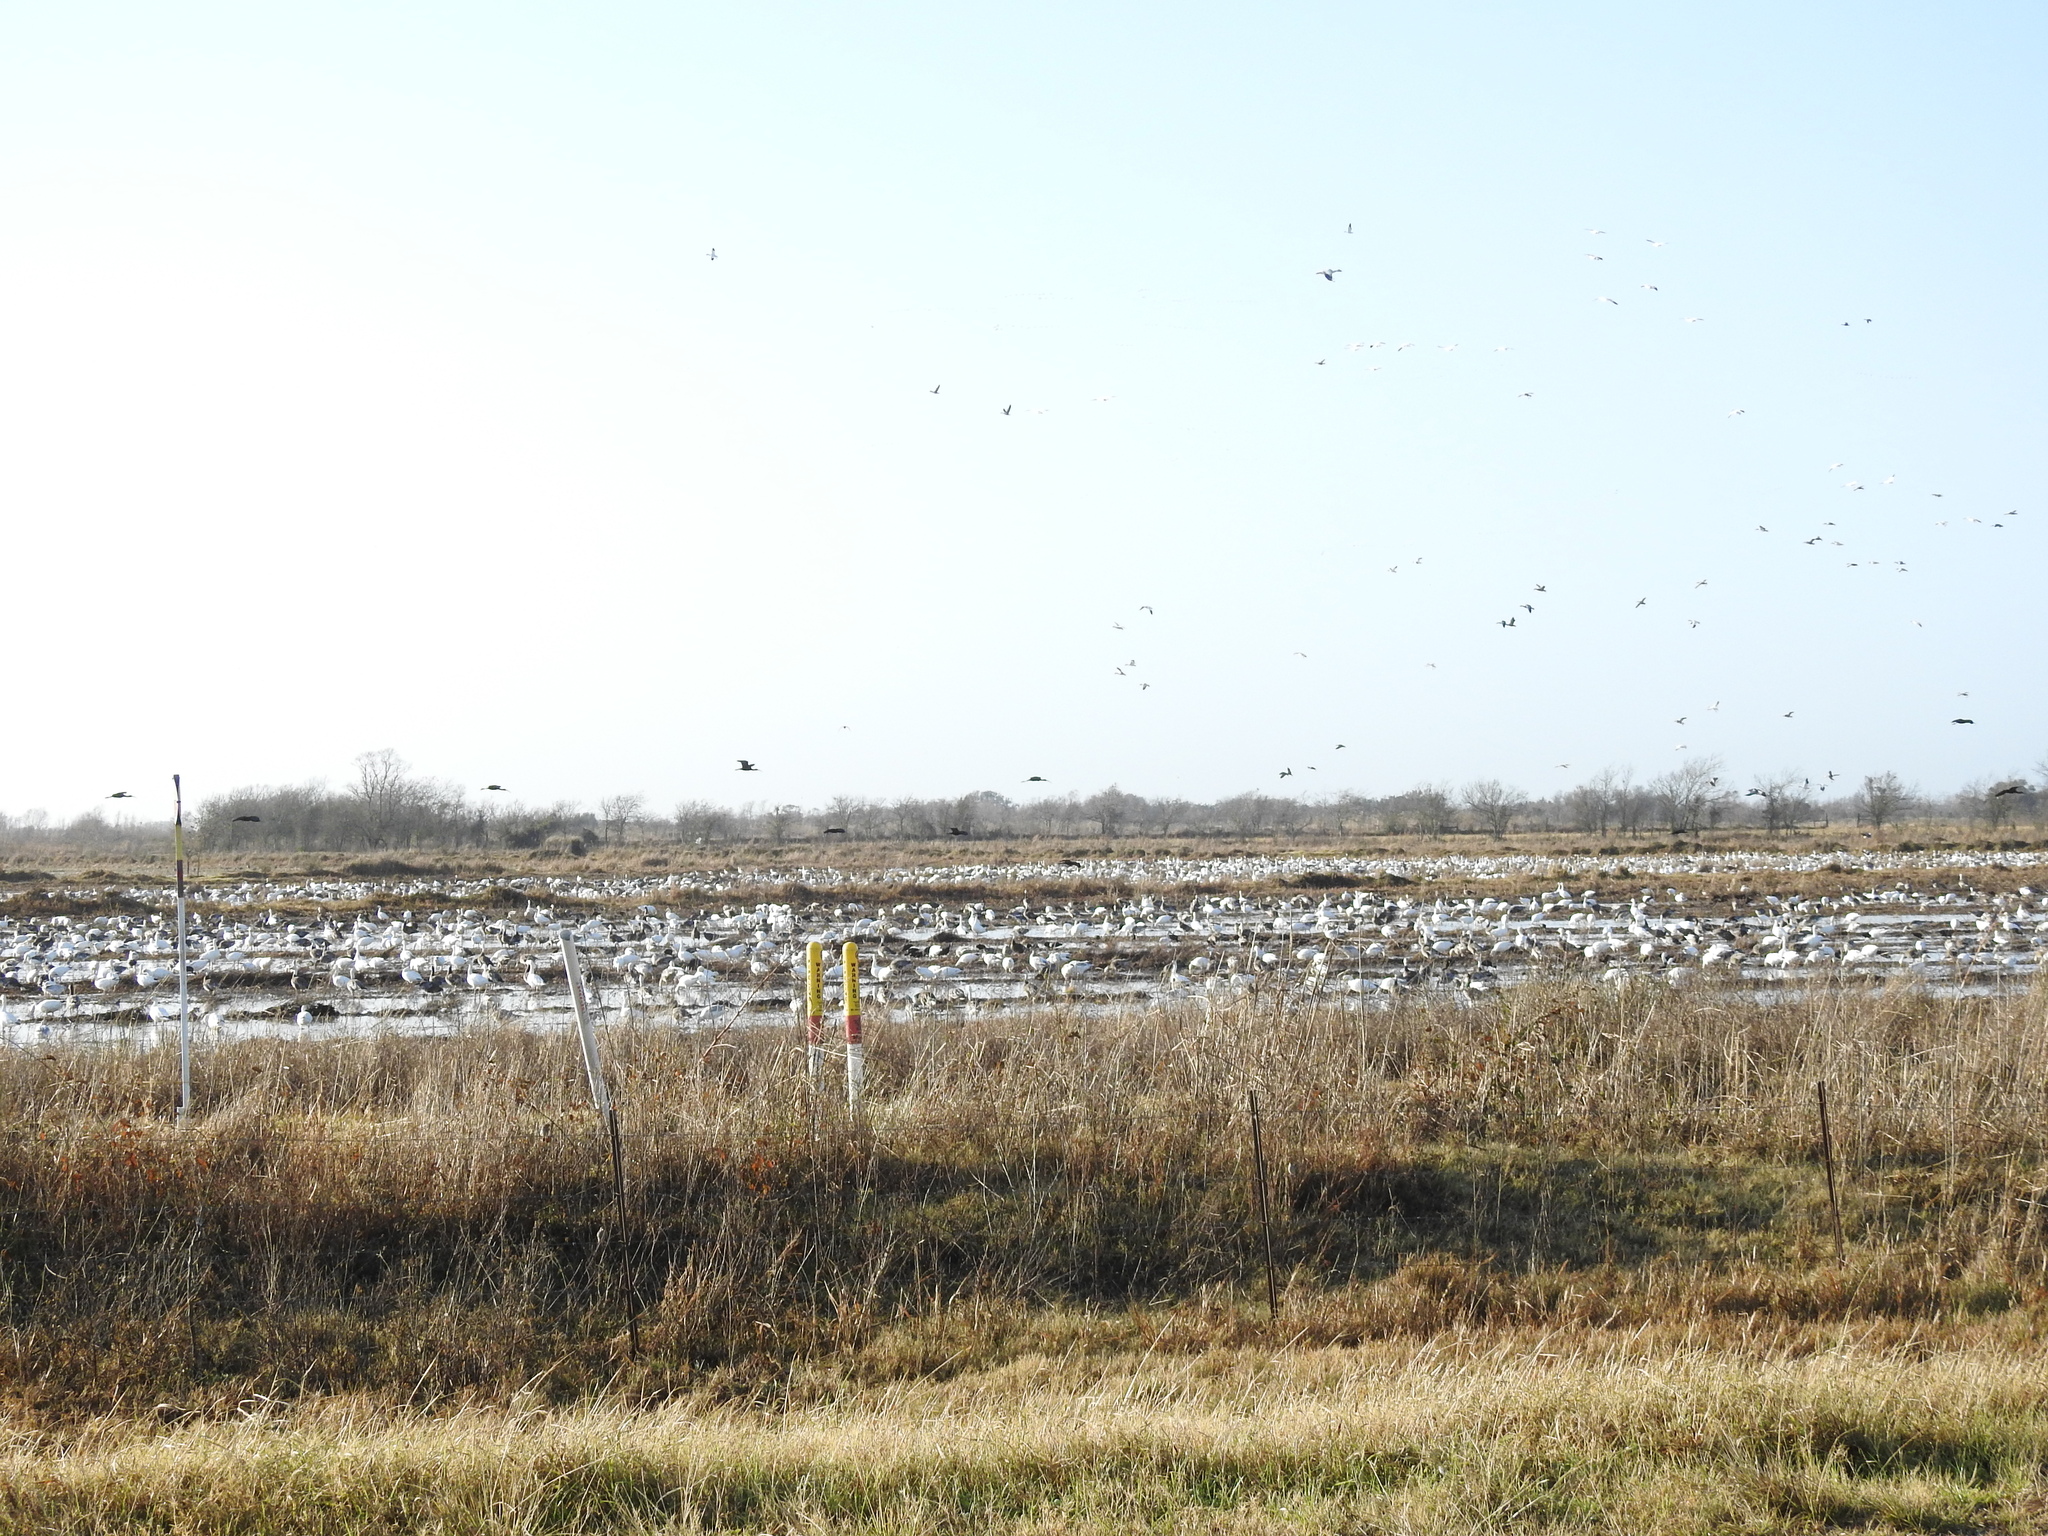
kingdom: Animalia
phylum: Chordata
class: Aves
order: Anseriformes
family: Anatidae
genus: Anser
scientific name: Anser caerulescens
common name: Snow goose
